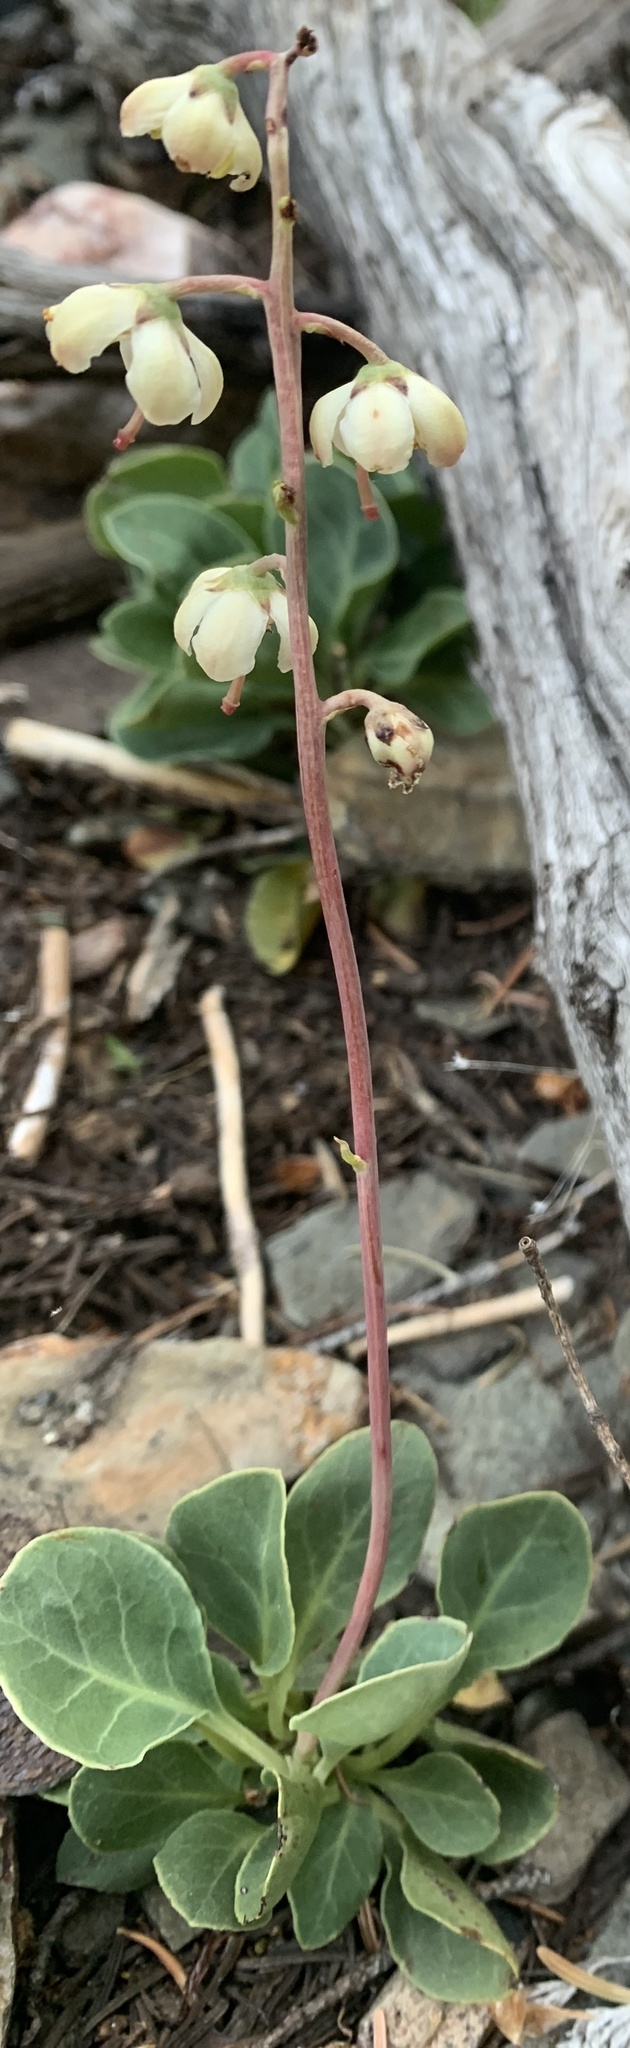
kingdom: Plantae
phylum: Tracheophyta
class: Magnoliopsida
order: Ericales
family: Ericaceae
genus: Pyrola
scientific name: Pyrola picta
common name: White-vein wintergreen
